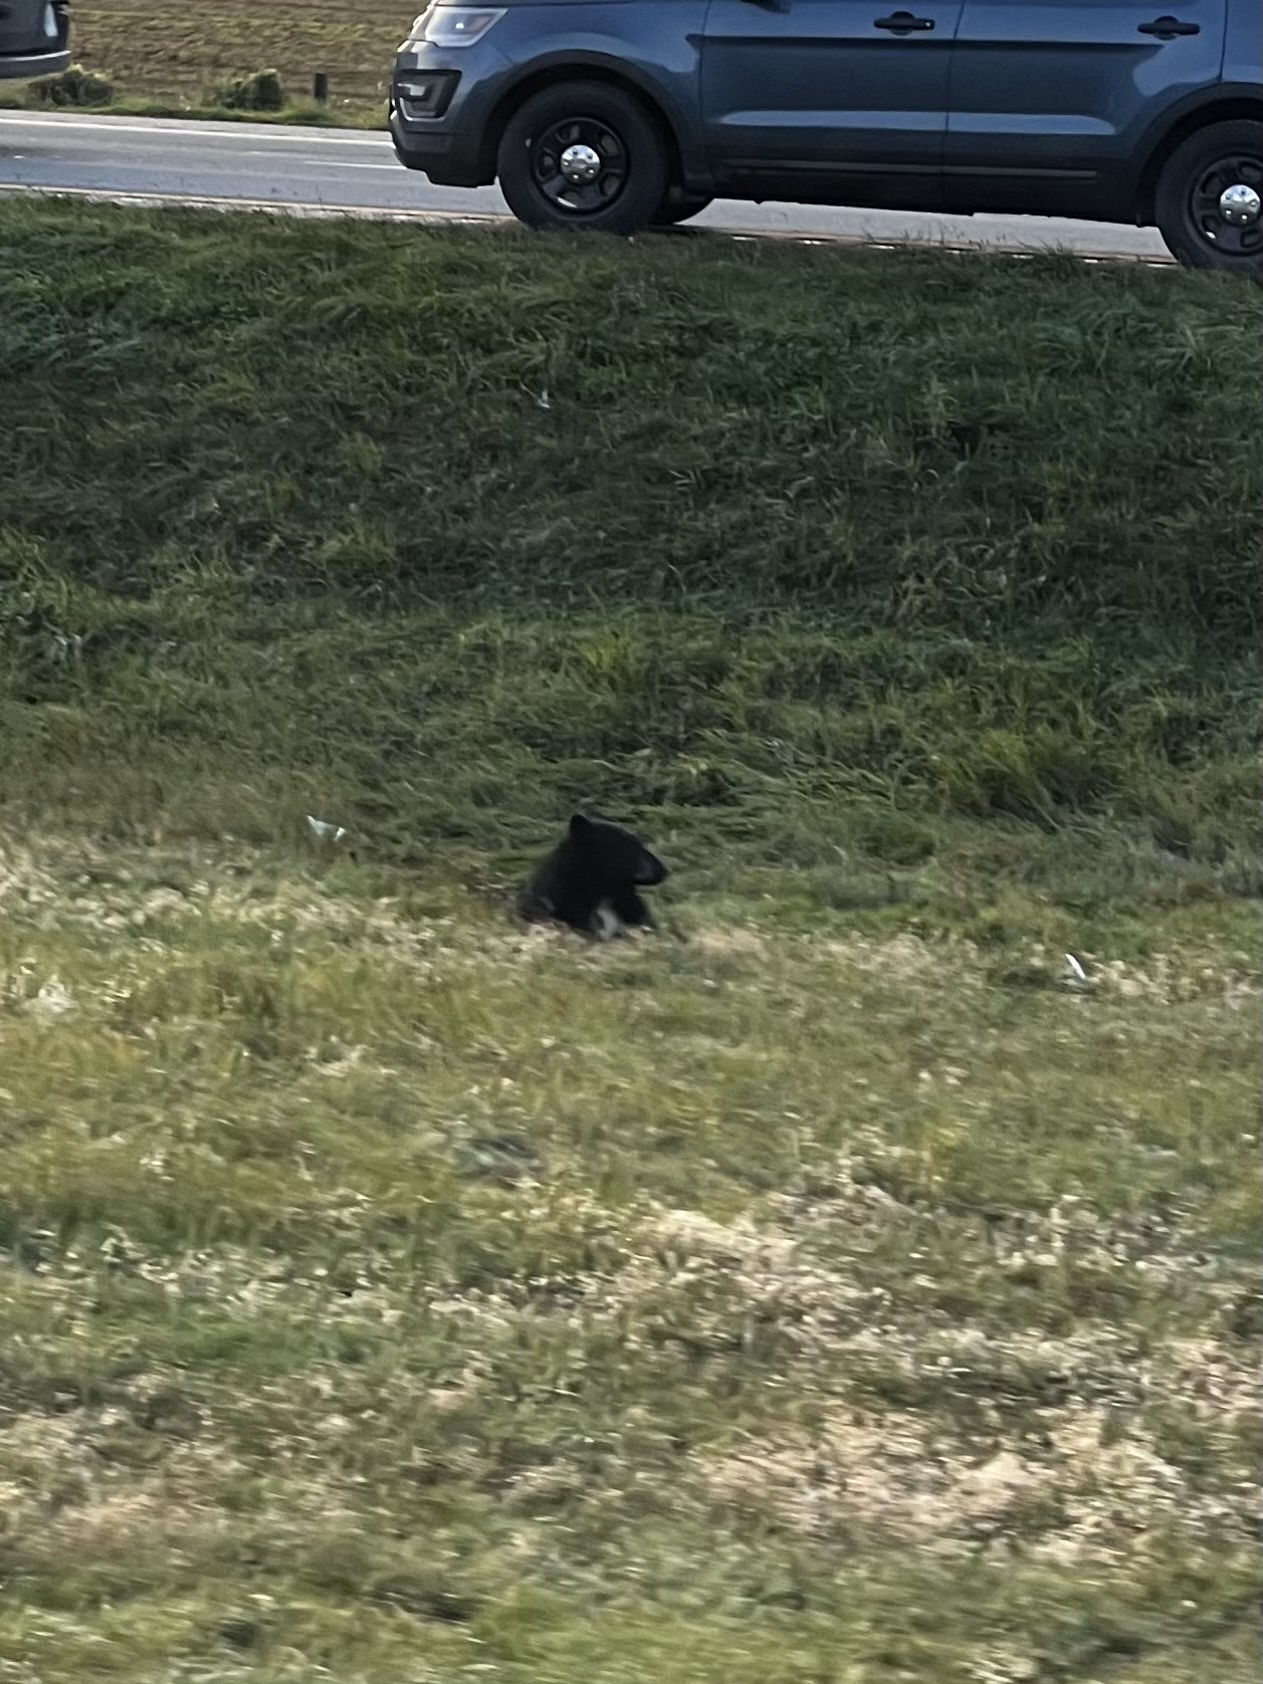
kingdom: Animalia
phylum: Chordata
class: Mammalia
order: Carnivora
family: Ursidae
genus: Ursus
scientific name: Ursus americanus
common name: American black bear
